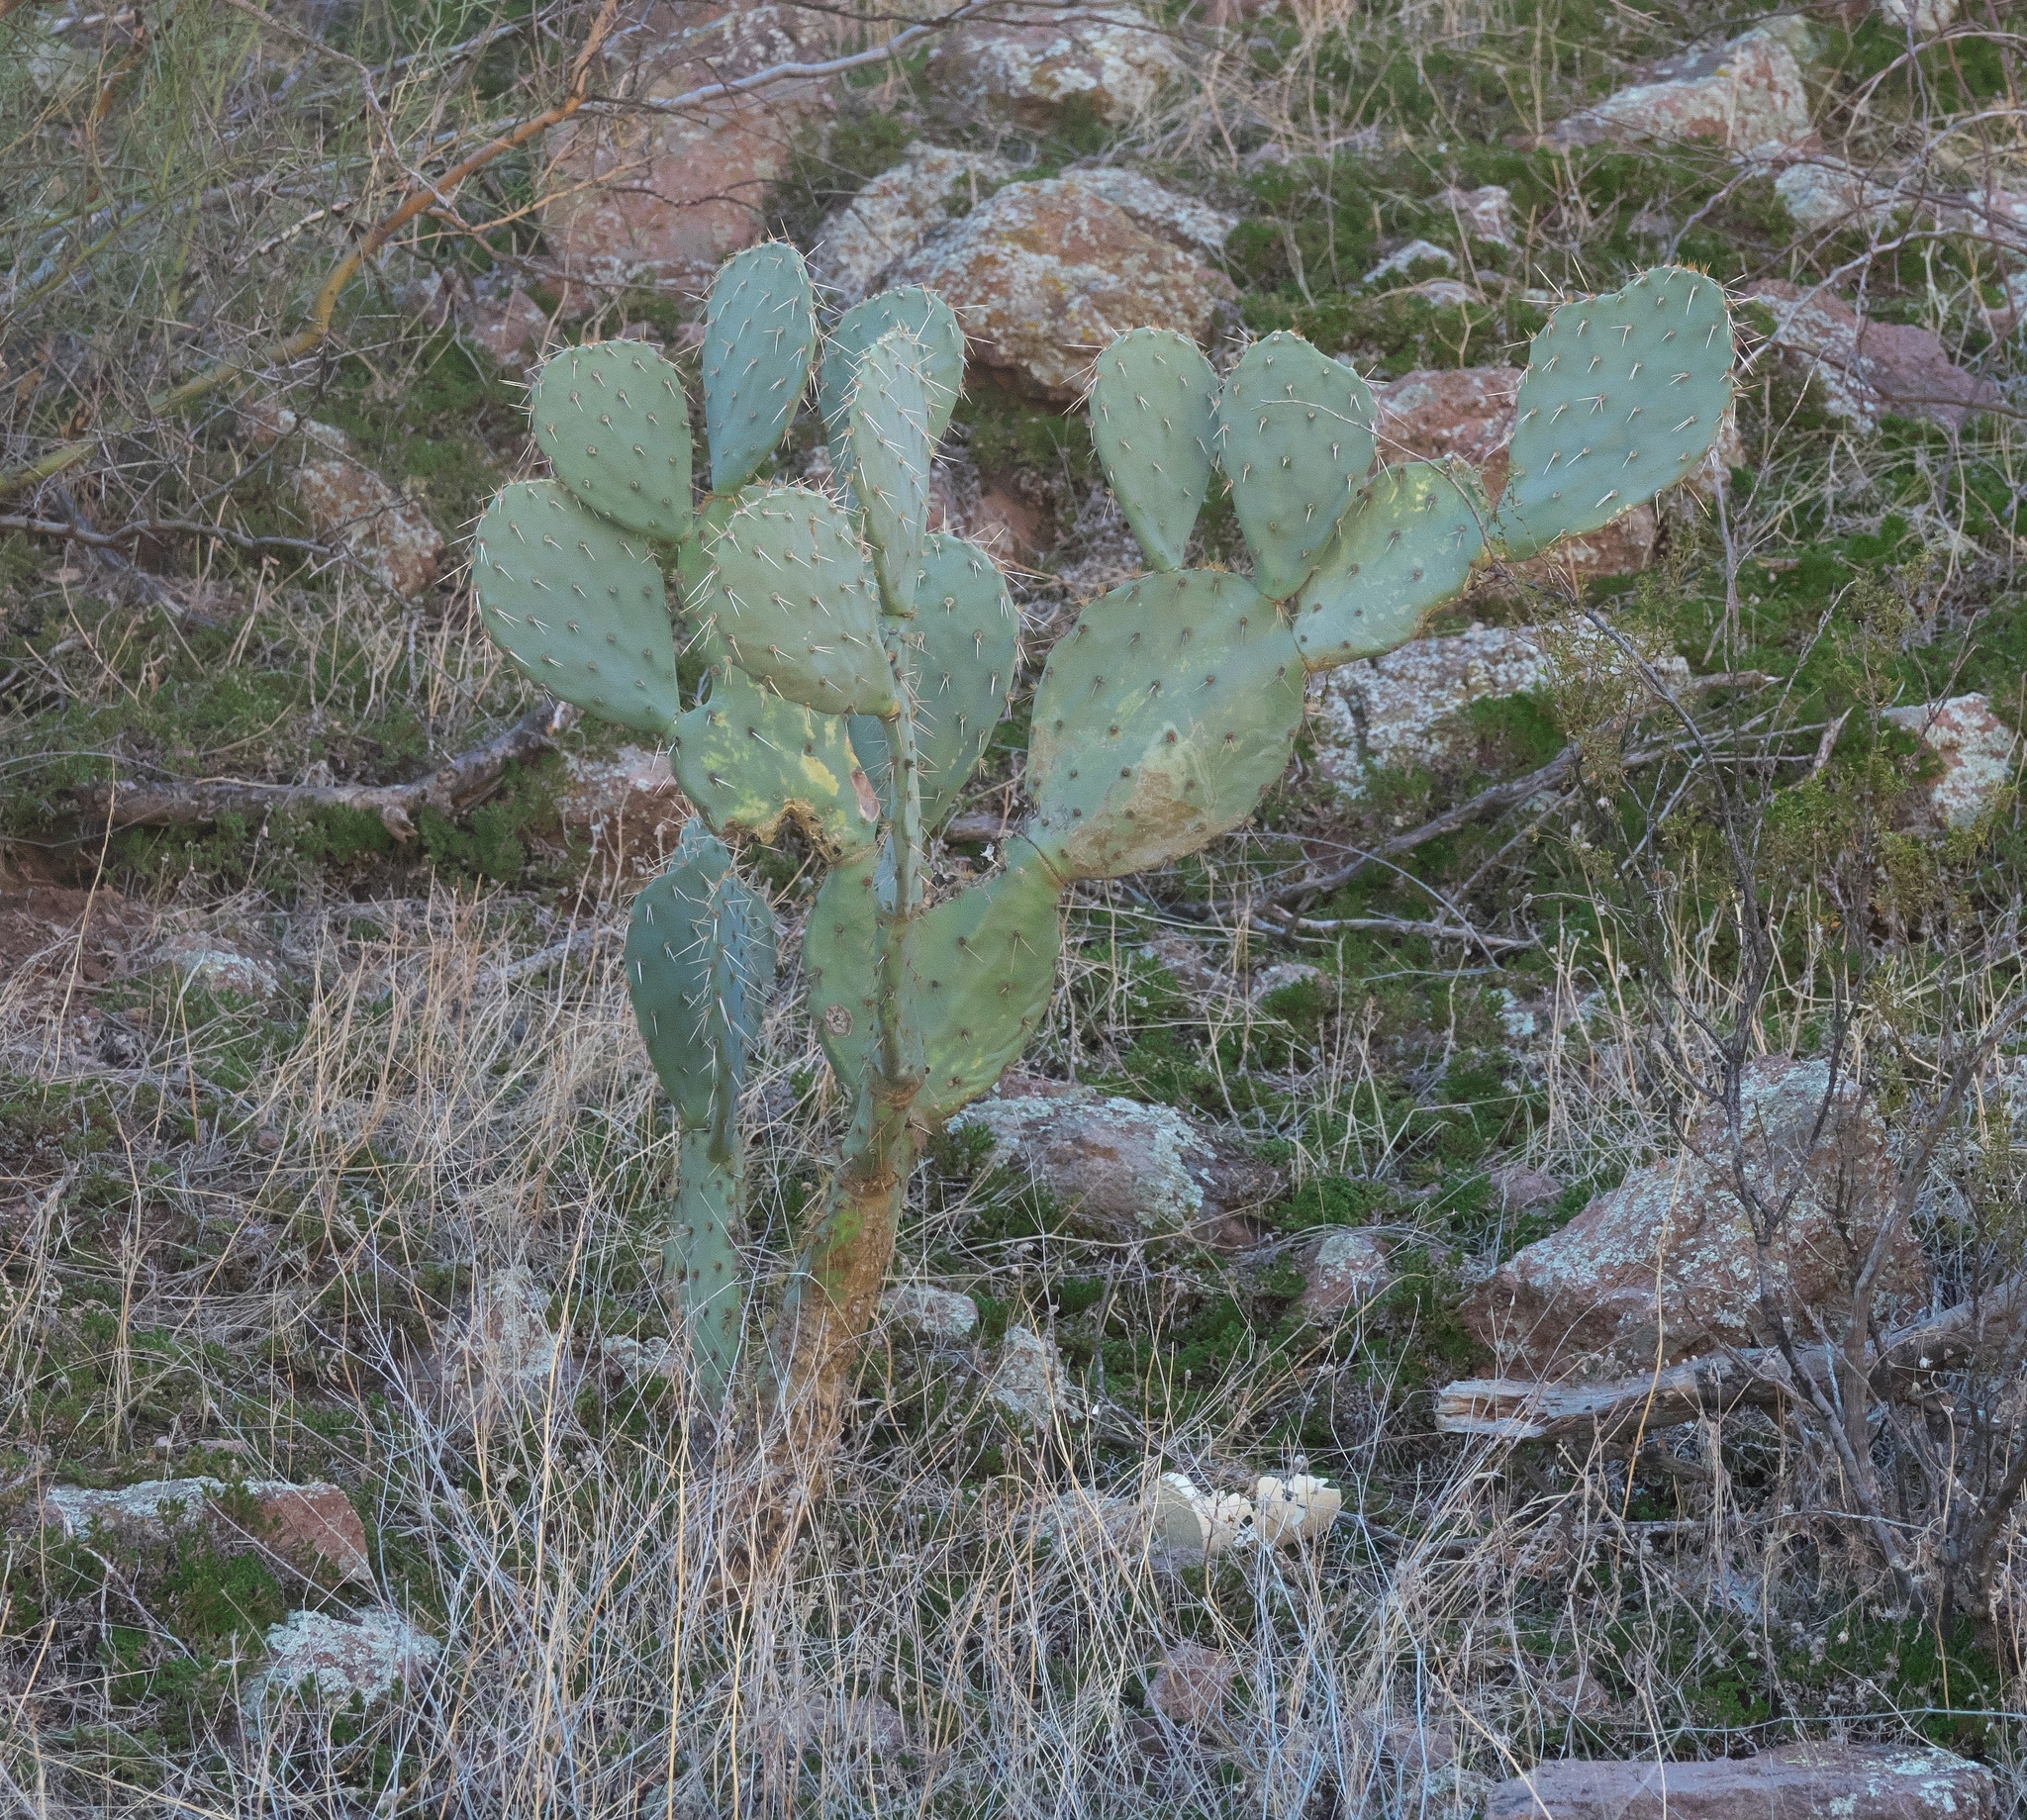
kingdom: Plantae
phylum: Tracheophyta
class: Magnoliopsida
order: Caryophyllales
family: Cactaceae
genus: Opuntia
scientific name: Opuntia engelmannii
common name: Cactus-apple
